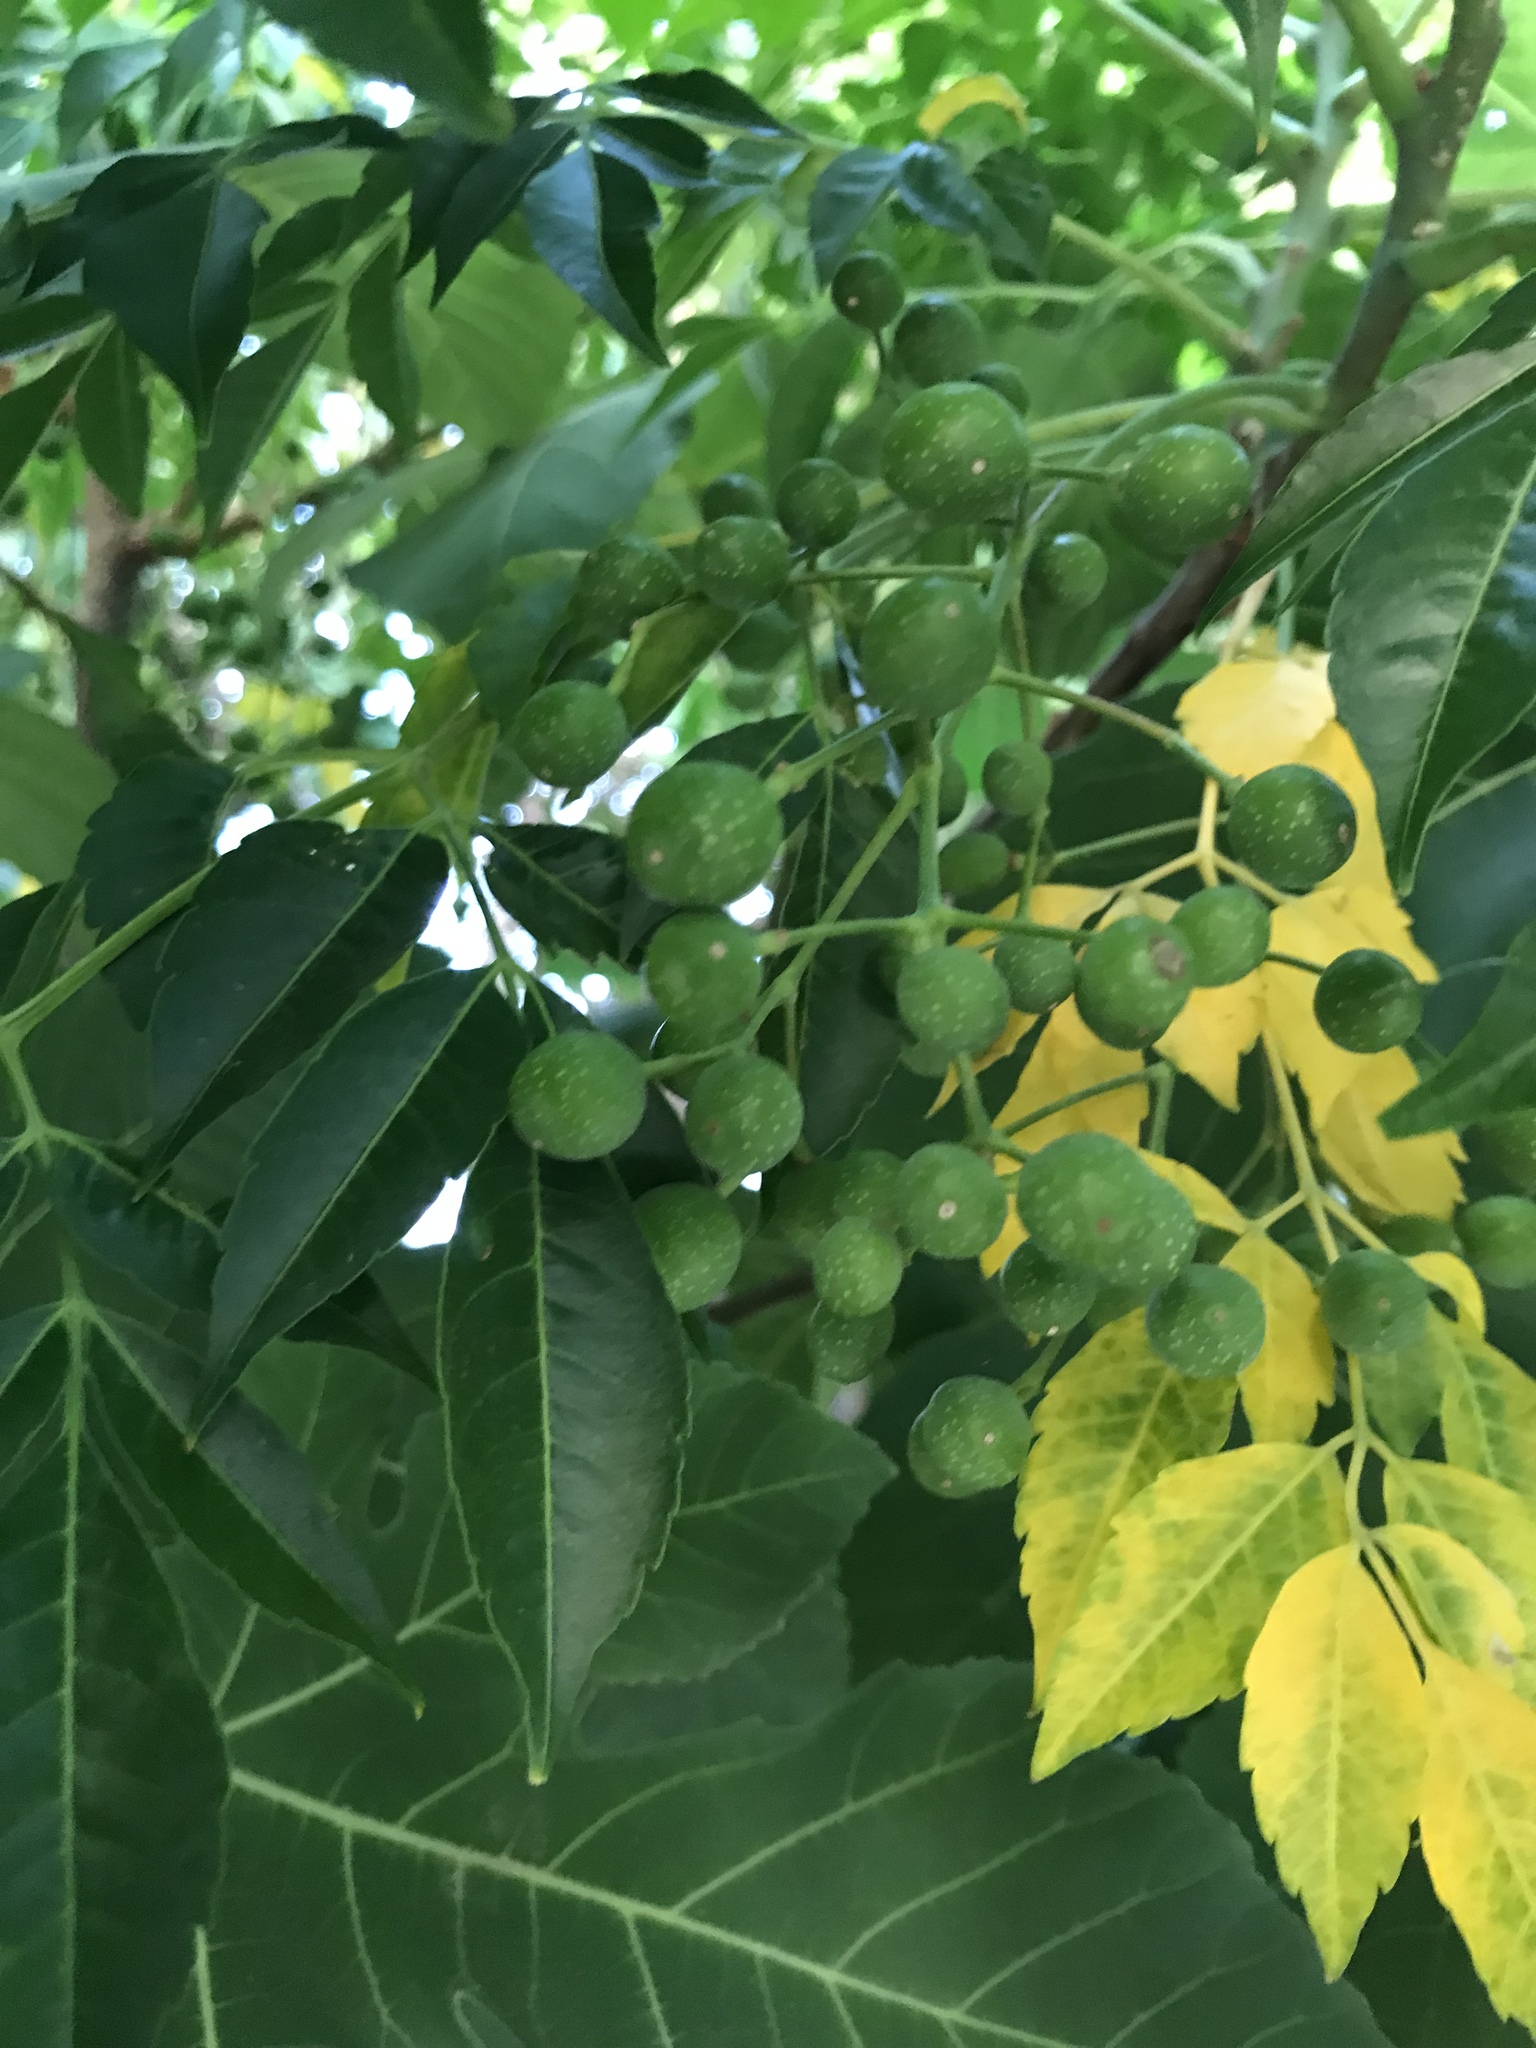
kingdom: Plantae
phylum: Tracheophyta
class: Magnoliopsida
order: Sapindales
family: Meliaceae
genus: Melia
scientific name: Melia azedarach
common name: Chinaberrytree
